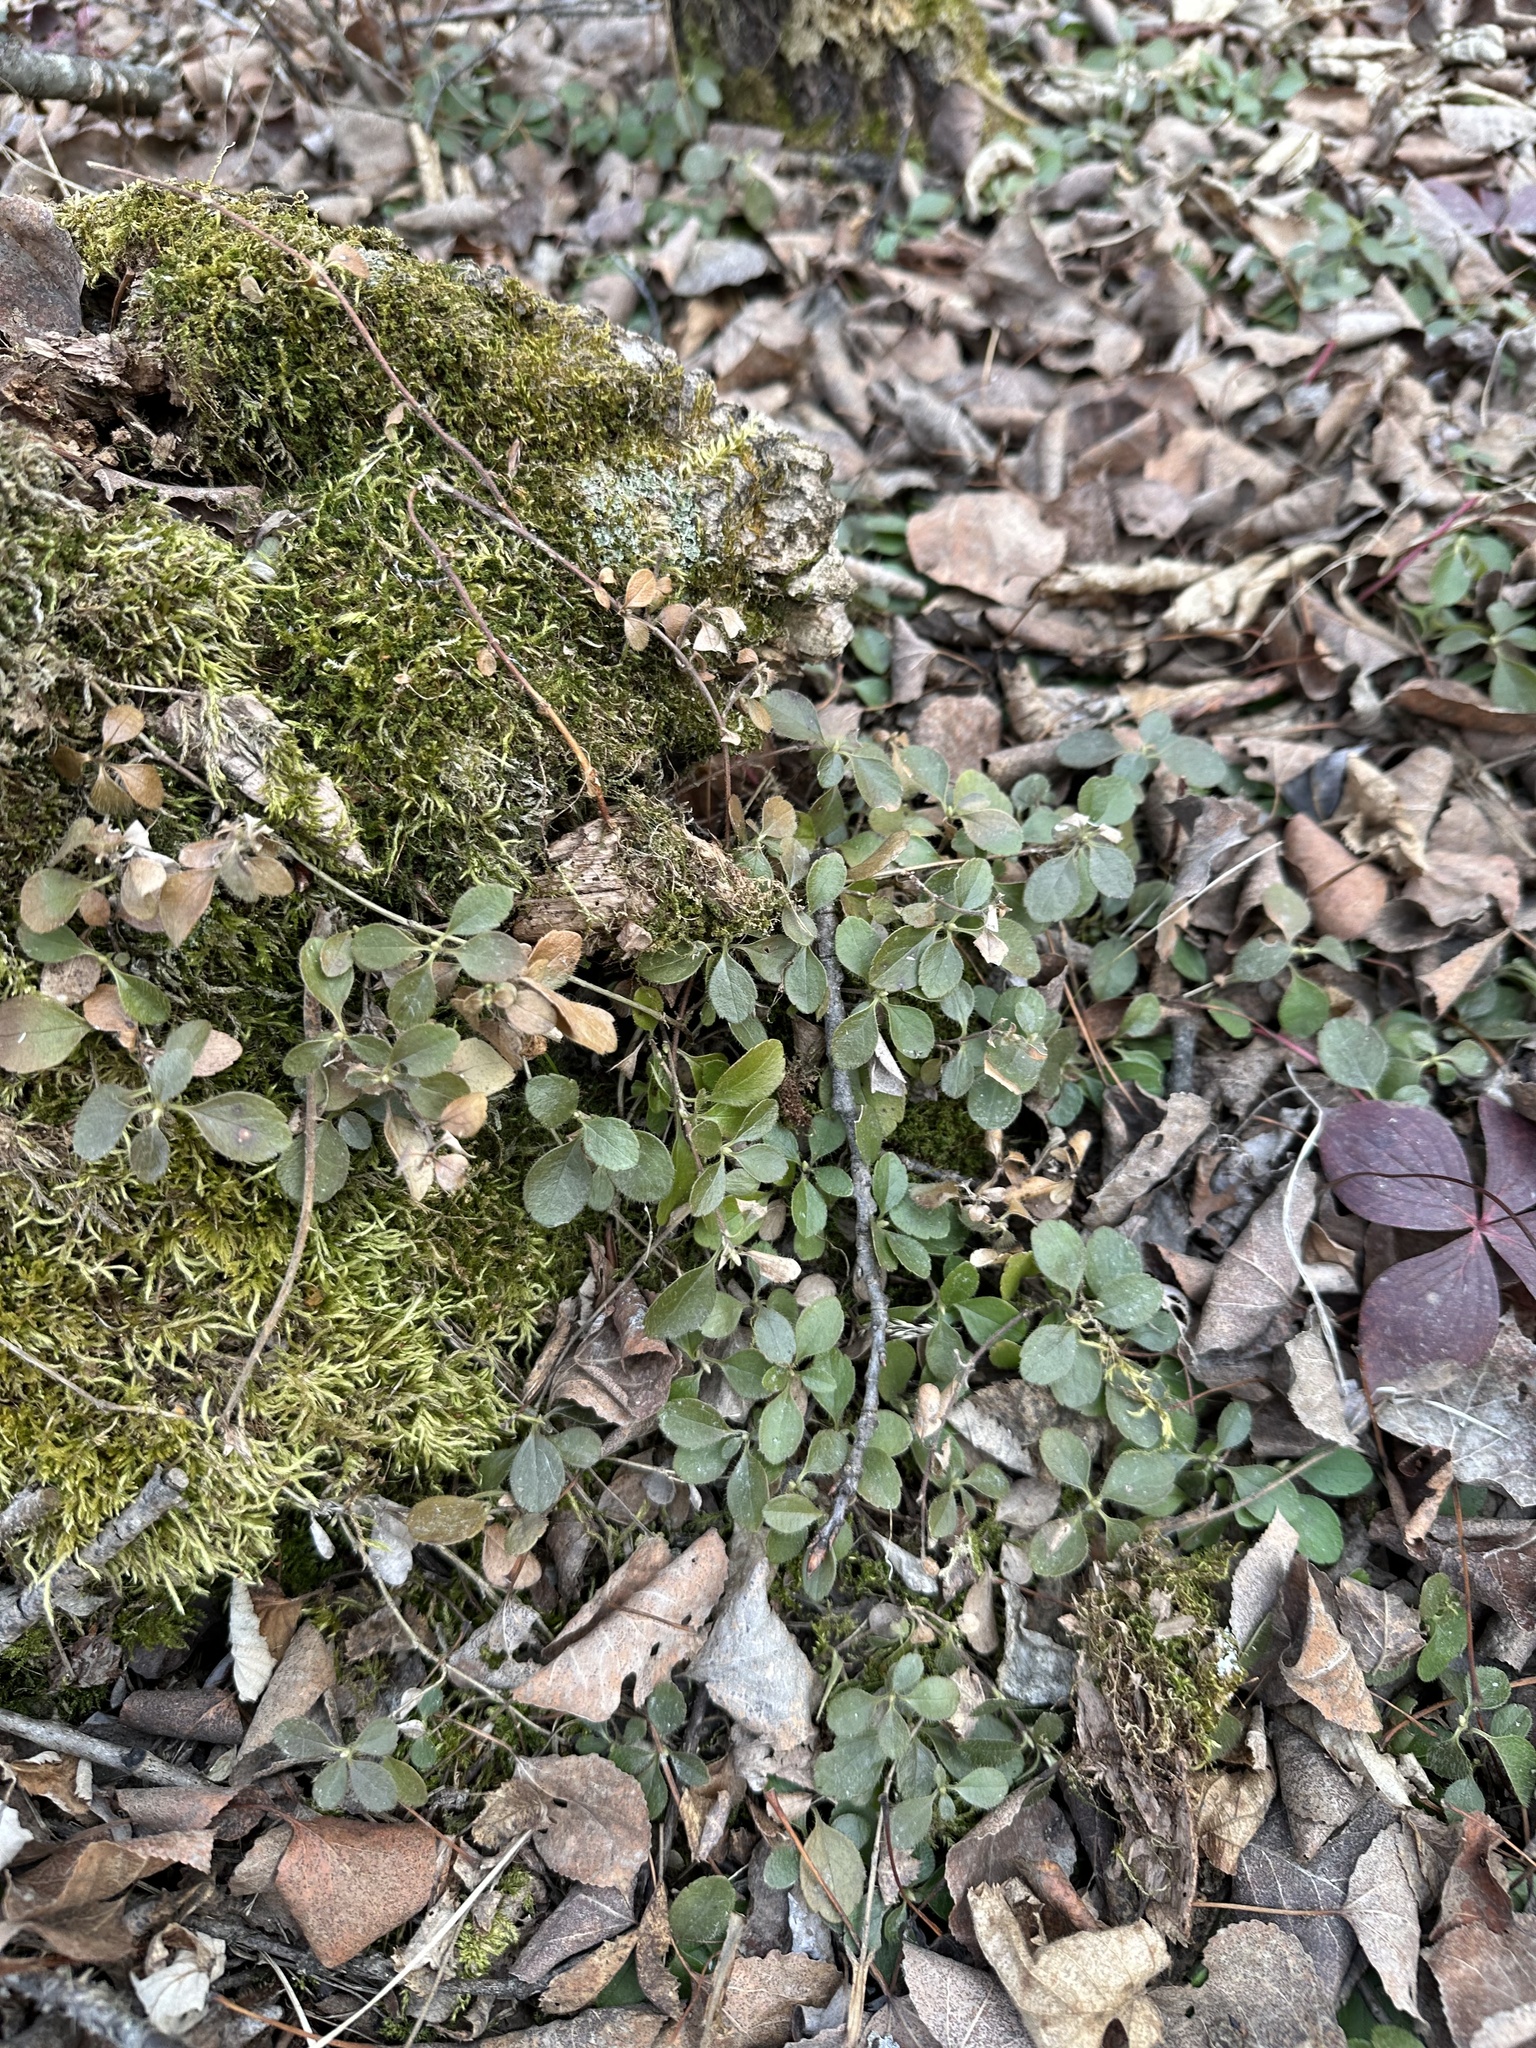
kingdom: Plantae
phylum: Tracheophyta
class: Magnoliopsida
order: Dipsacales
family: Caprifoliaceae
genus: Linnaea
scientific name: Linnaea borealis
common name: Twinflower
